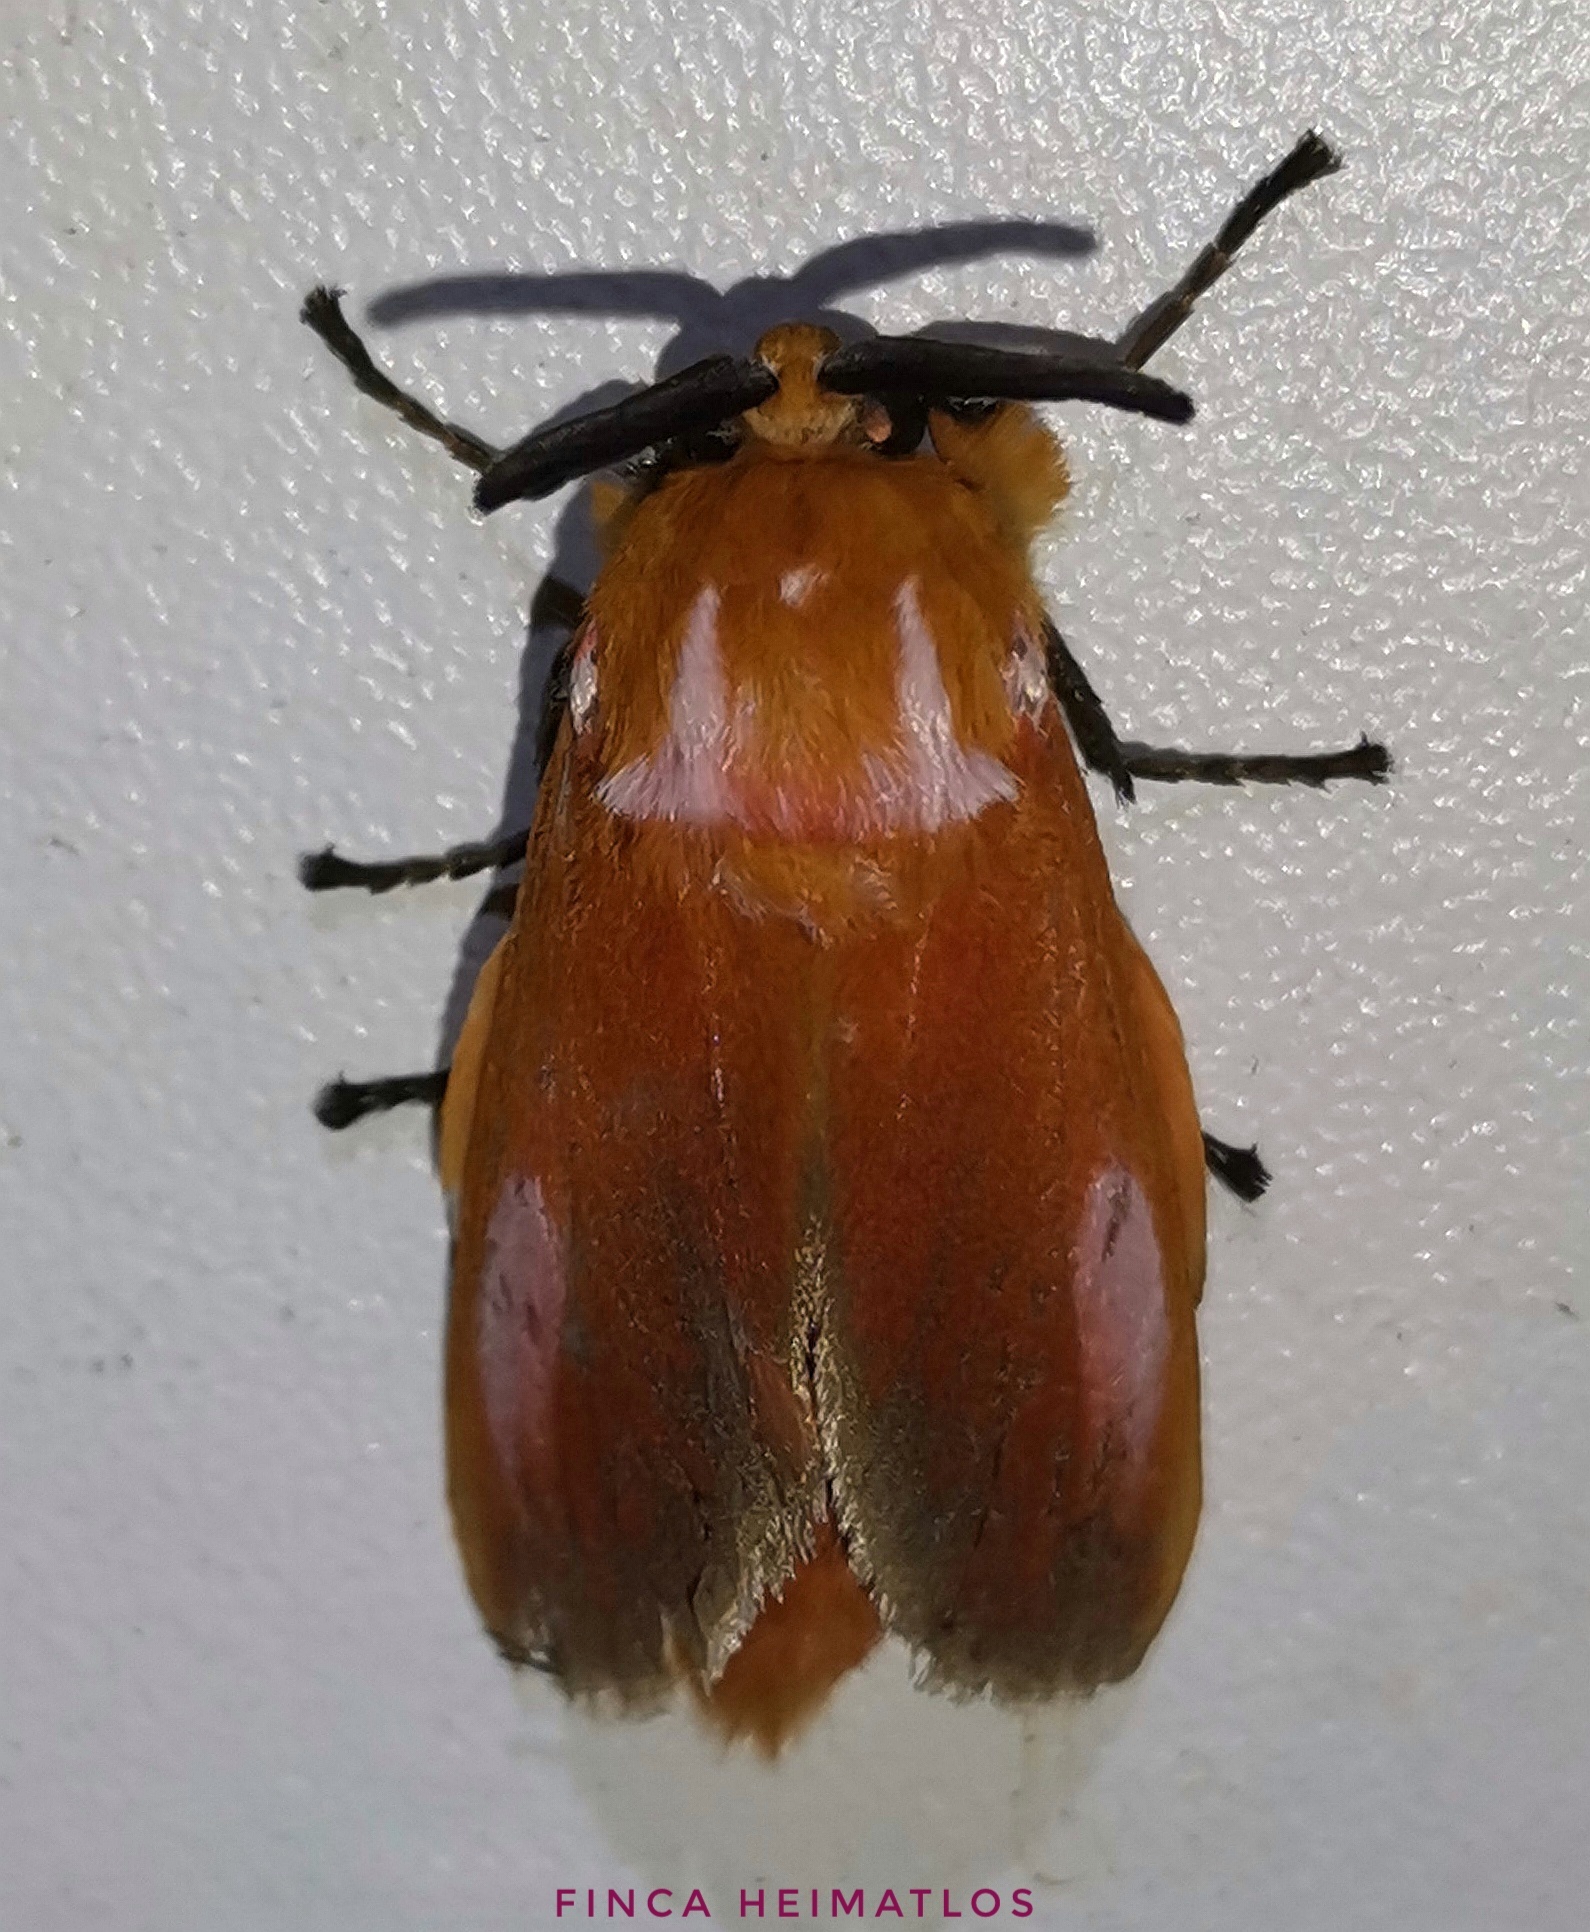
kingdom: Animalia
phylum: Arthropoda
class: Insecta
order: Lepidoptera
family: Megalopygidae
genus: Endobrachys
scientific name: Endobrachys pulchella
